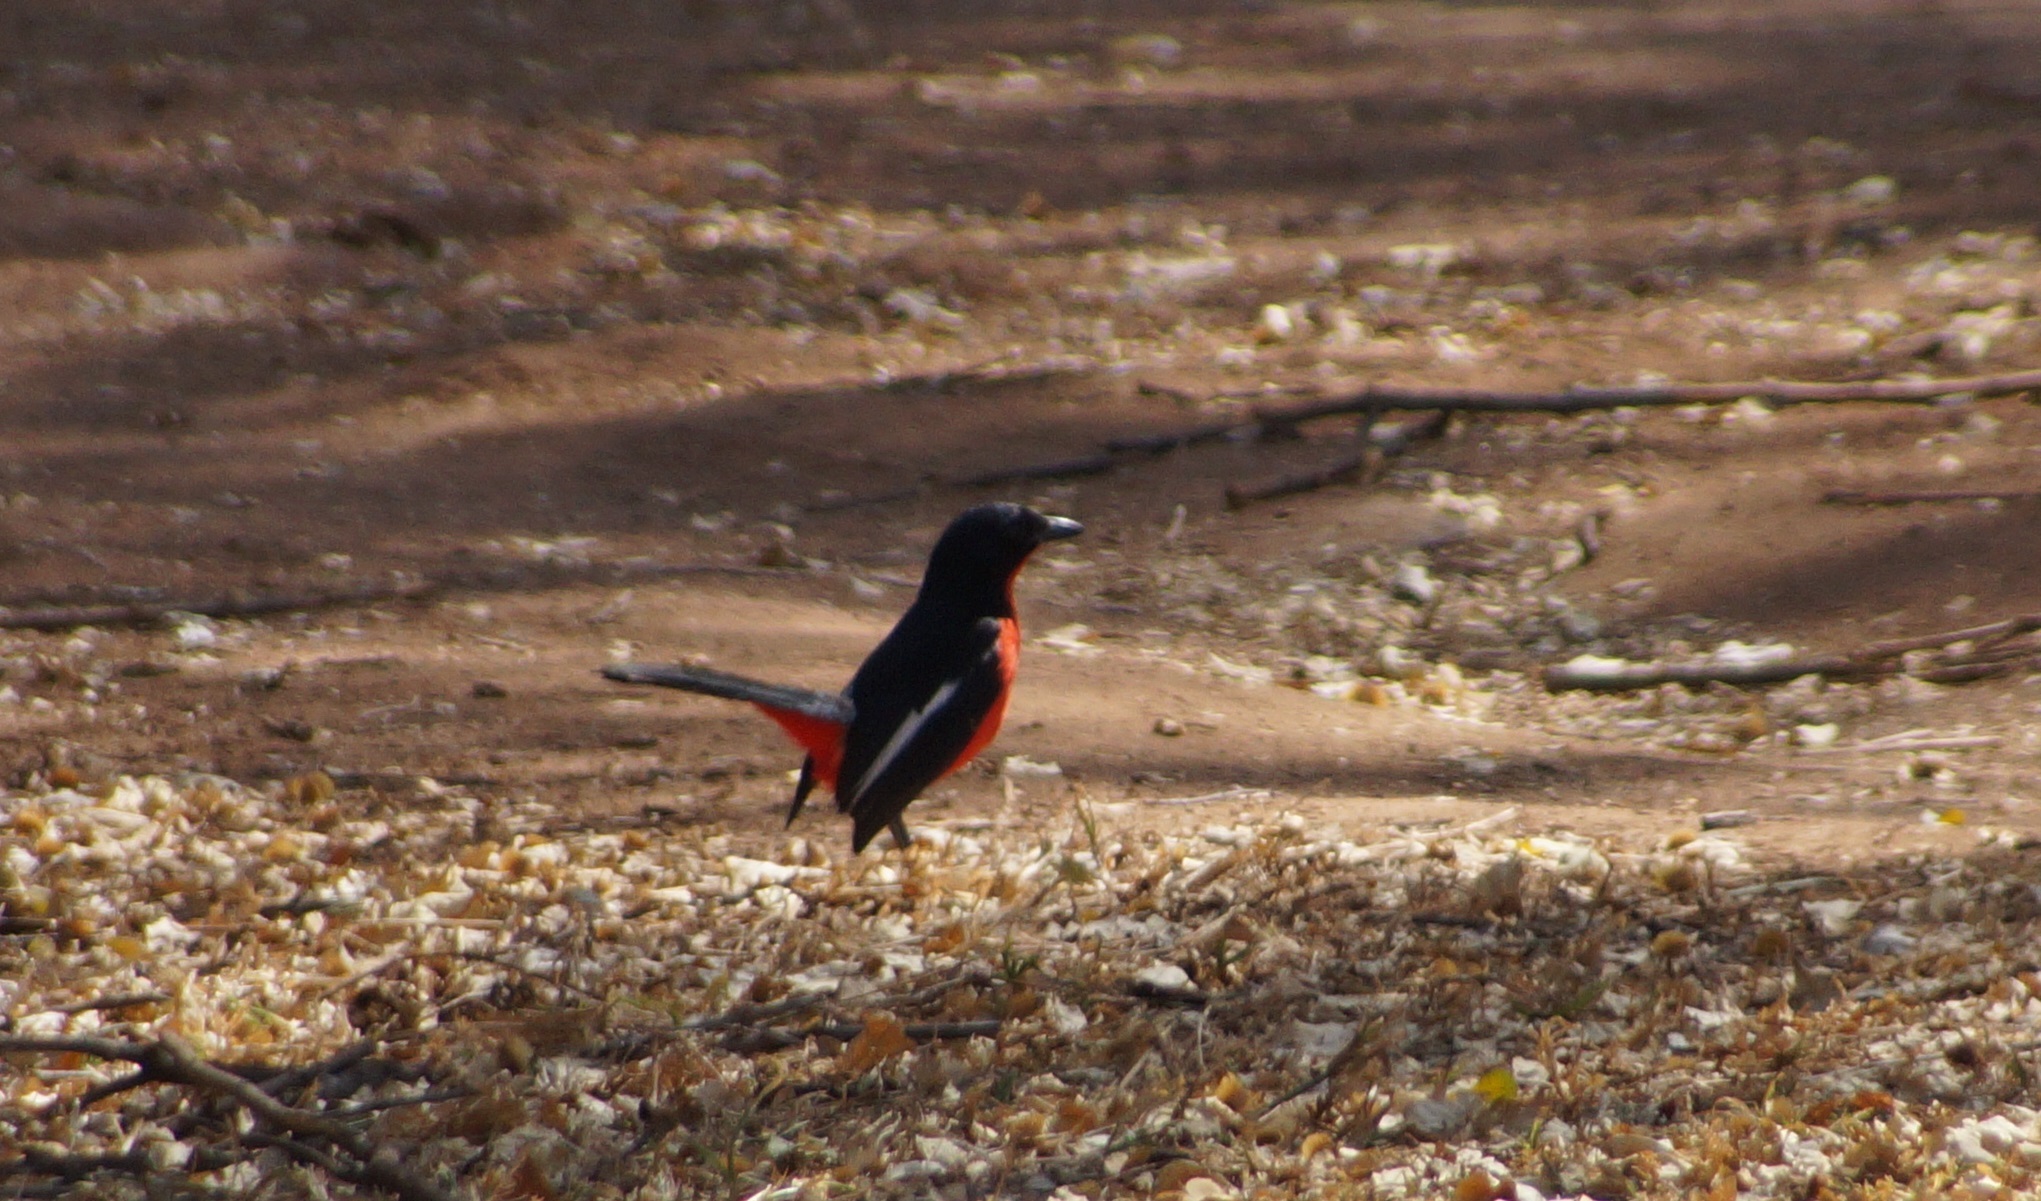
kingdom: Animalia
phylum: Chordata
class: Aves
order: Passeriformes
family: Malaconotidae
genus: Laniarius
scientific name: Laniarius atrococcineus
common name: Crimson-breasted shrike
